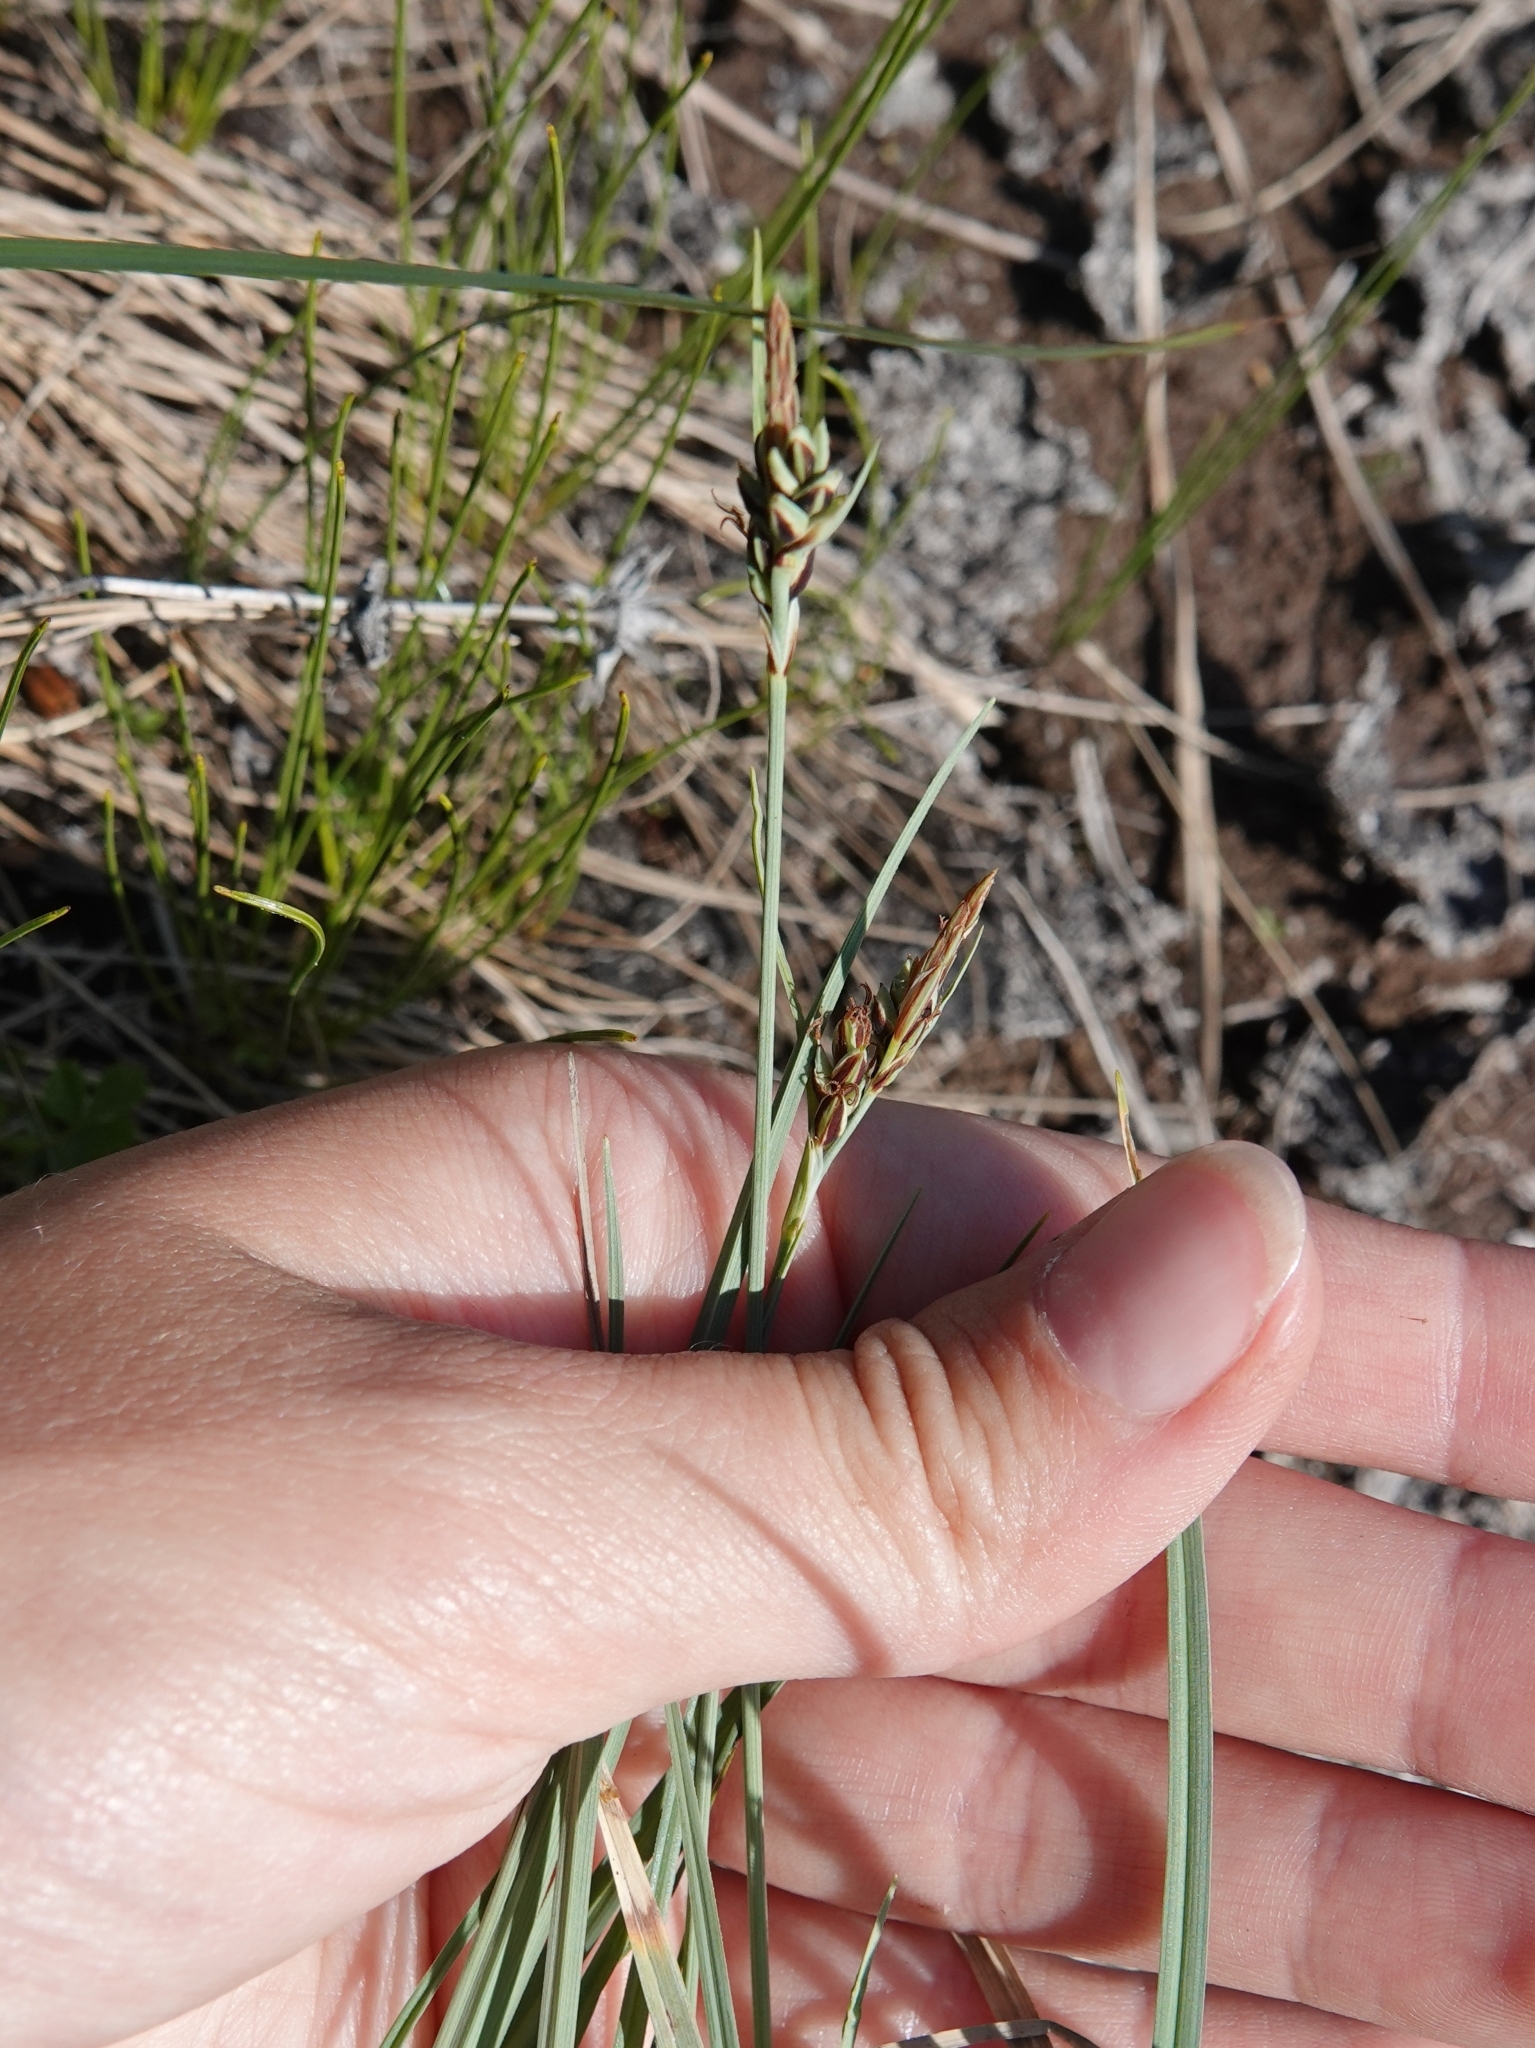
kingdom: Plantae
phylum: Tracheophyta
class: Liliopsida
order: Poales
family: Cyperaceae
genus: Carex
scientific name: Carex livida
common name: Livid sedge
